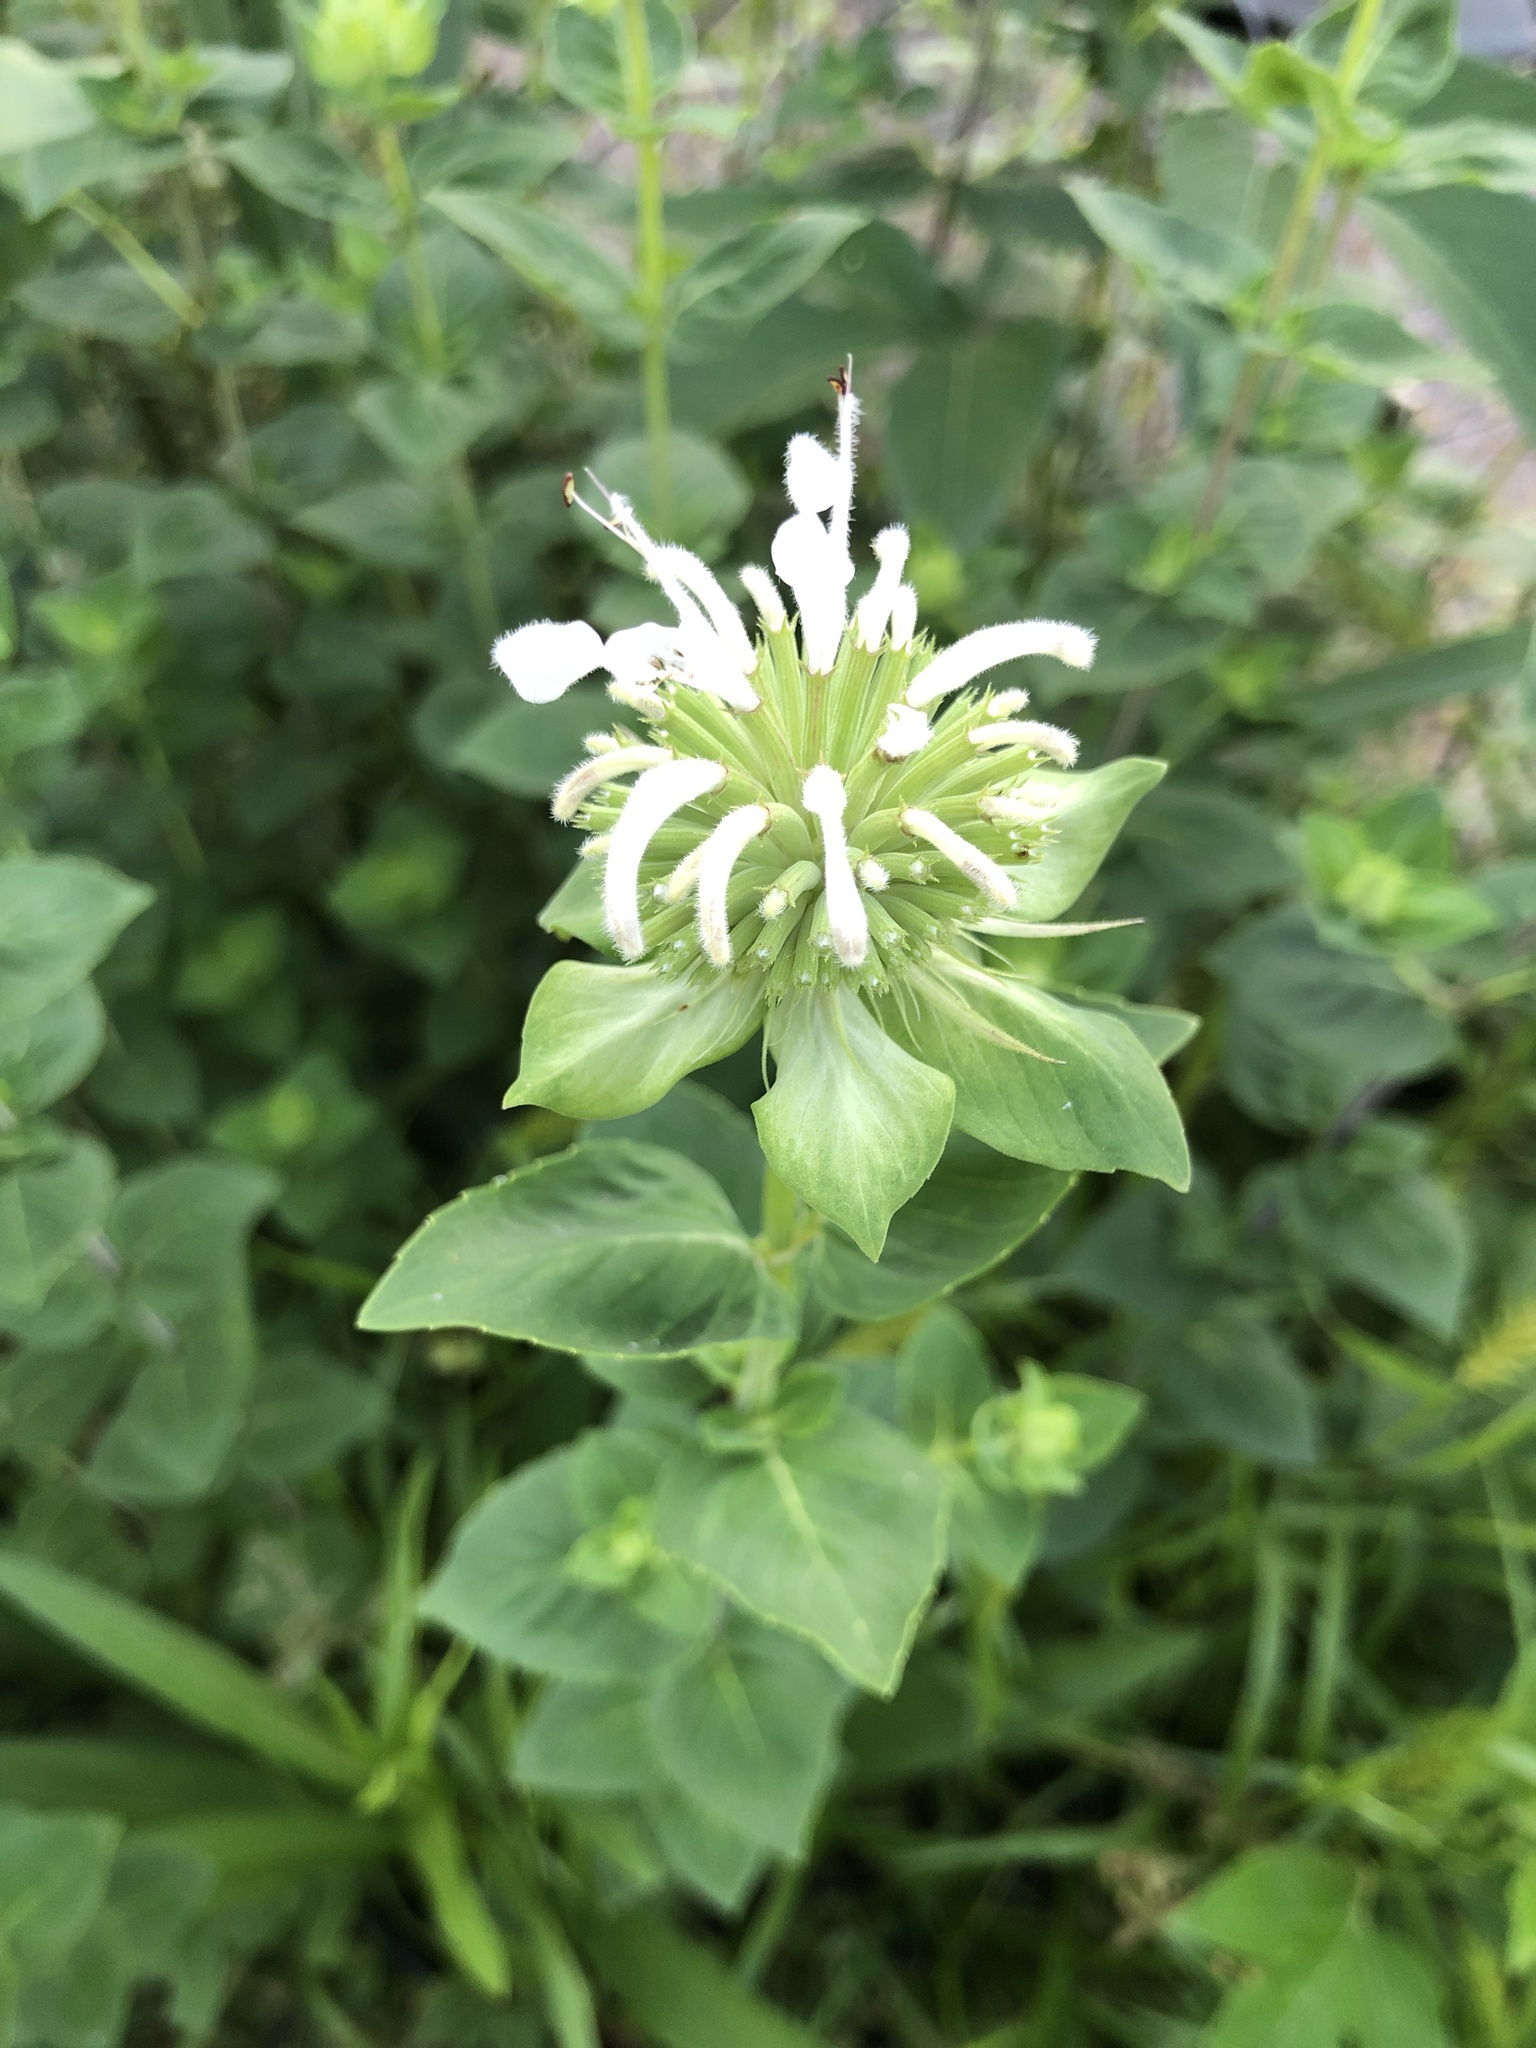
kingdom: Plantae
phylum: Tracheophyta
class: Magnoliopsida
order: Lamiales
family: Lamiaceae
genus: Monarda
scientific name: Monarda lindheimeri
